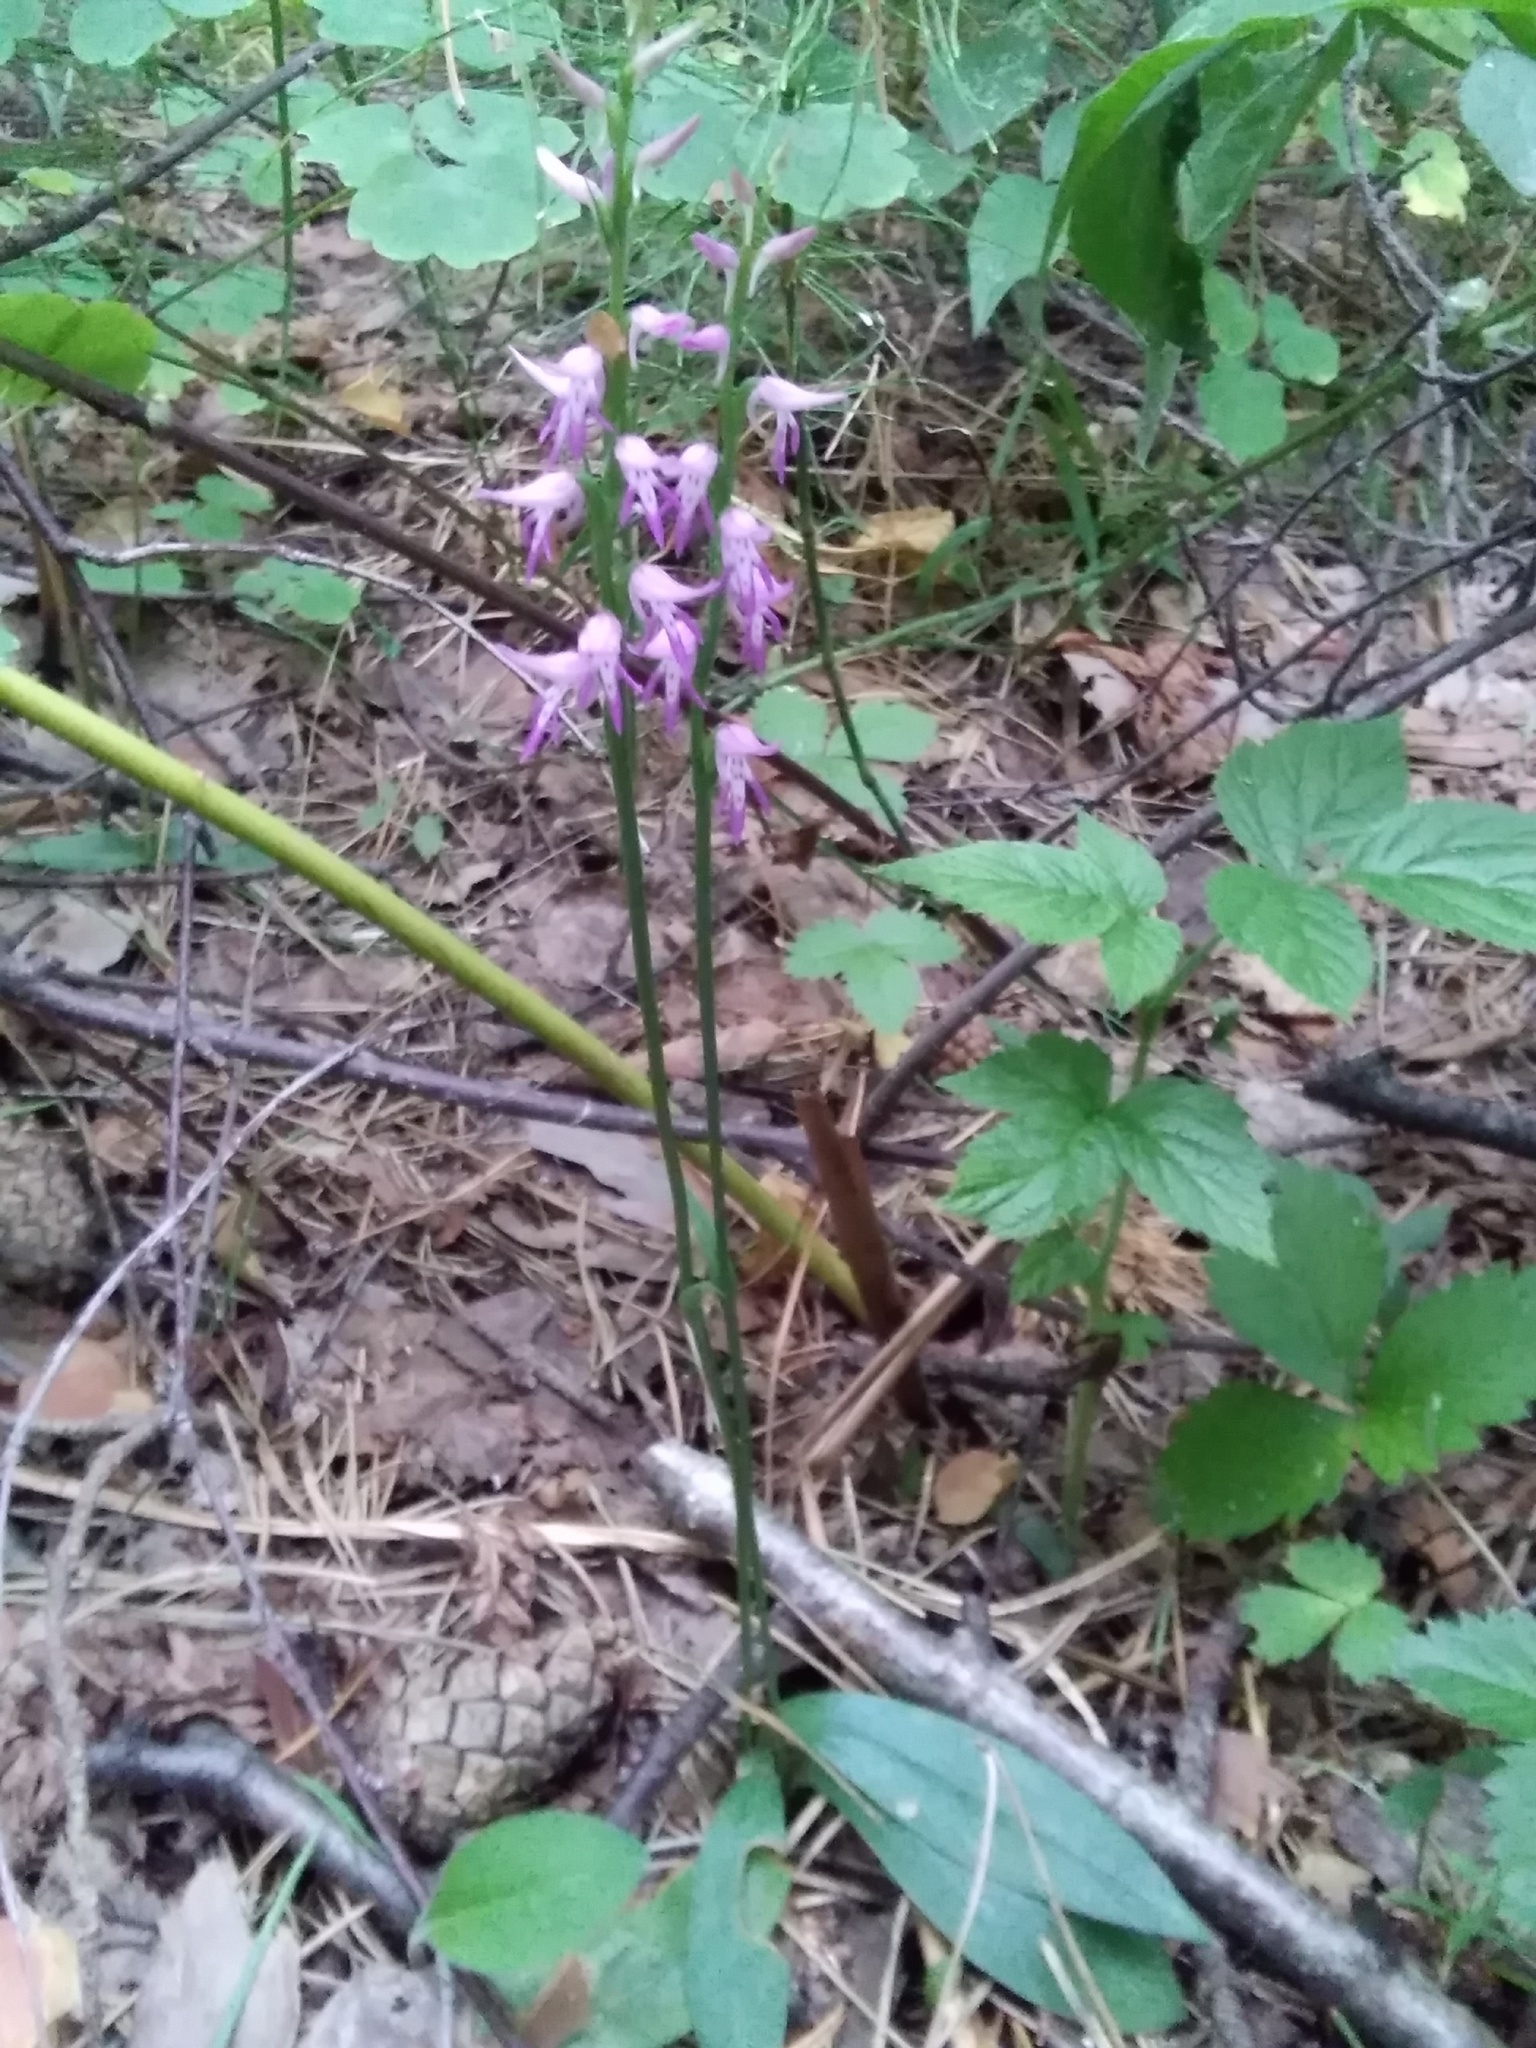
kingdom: Plantae
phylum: Tracheophyta
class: Liliopsida
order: Asparagales
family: Orchidaceae
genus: Hemipilia
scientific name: Hemipilia cucullata
